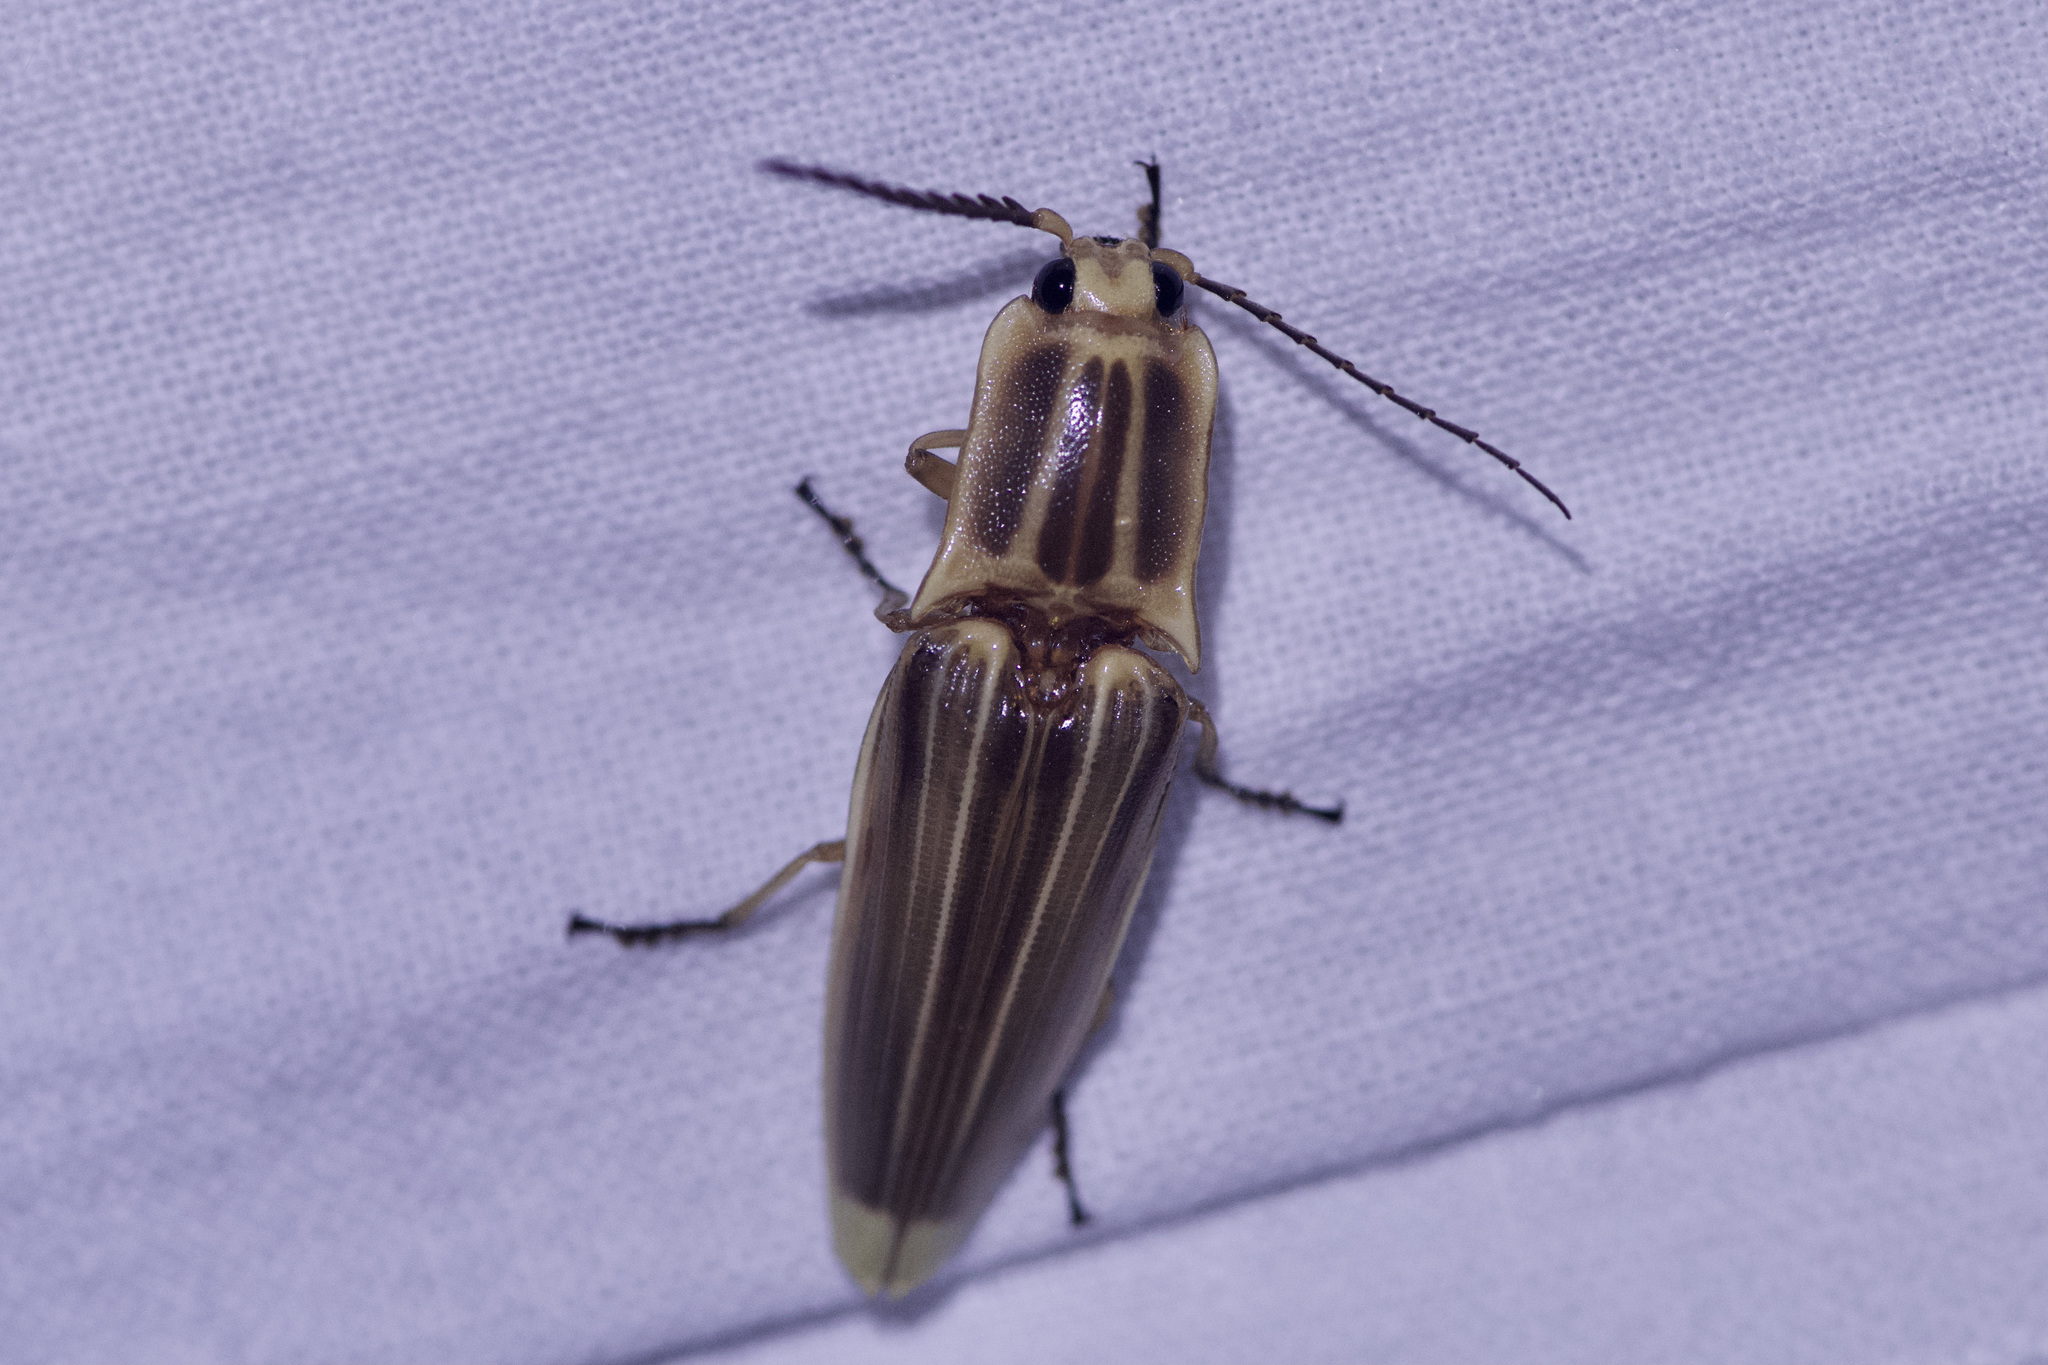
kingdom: Animalia
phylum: Arthropoda
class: Insecta
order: Coleoptera
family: Elateridae
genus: Semiotus
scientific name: Semiotus ligneus
